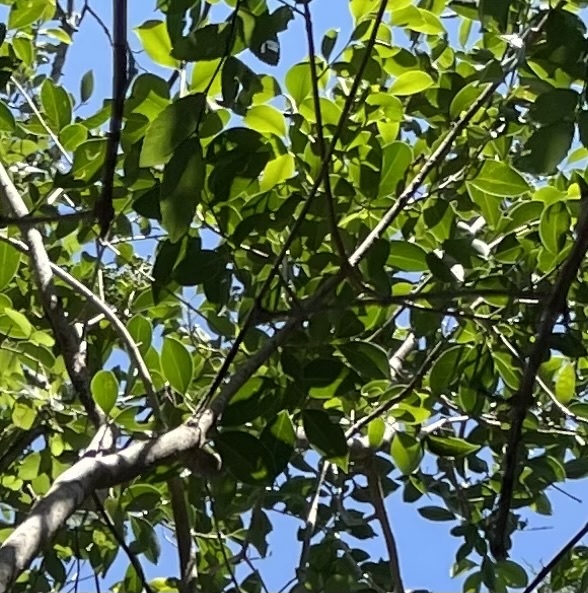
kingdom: Plantae
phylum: Tracheophyta
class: Magnoliopsida
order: Lamiales
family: Oleaceae
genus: Ligustrum
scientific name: Ligustrum lucidum
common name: Glossy privet
